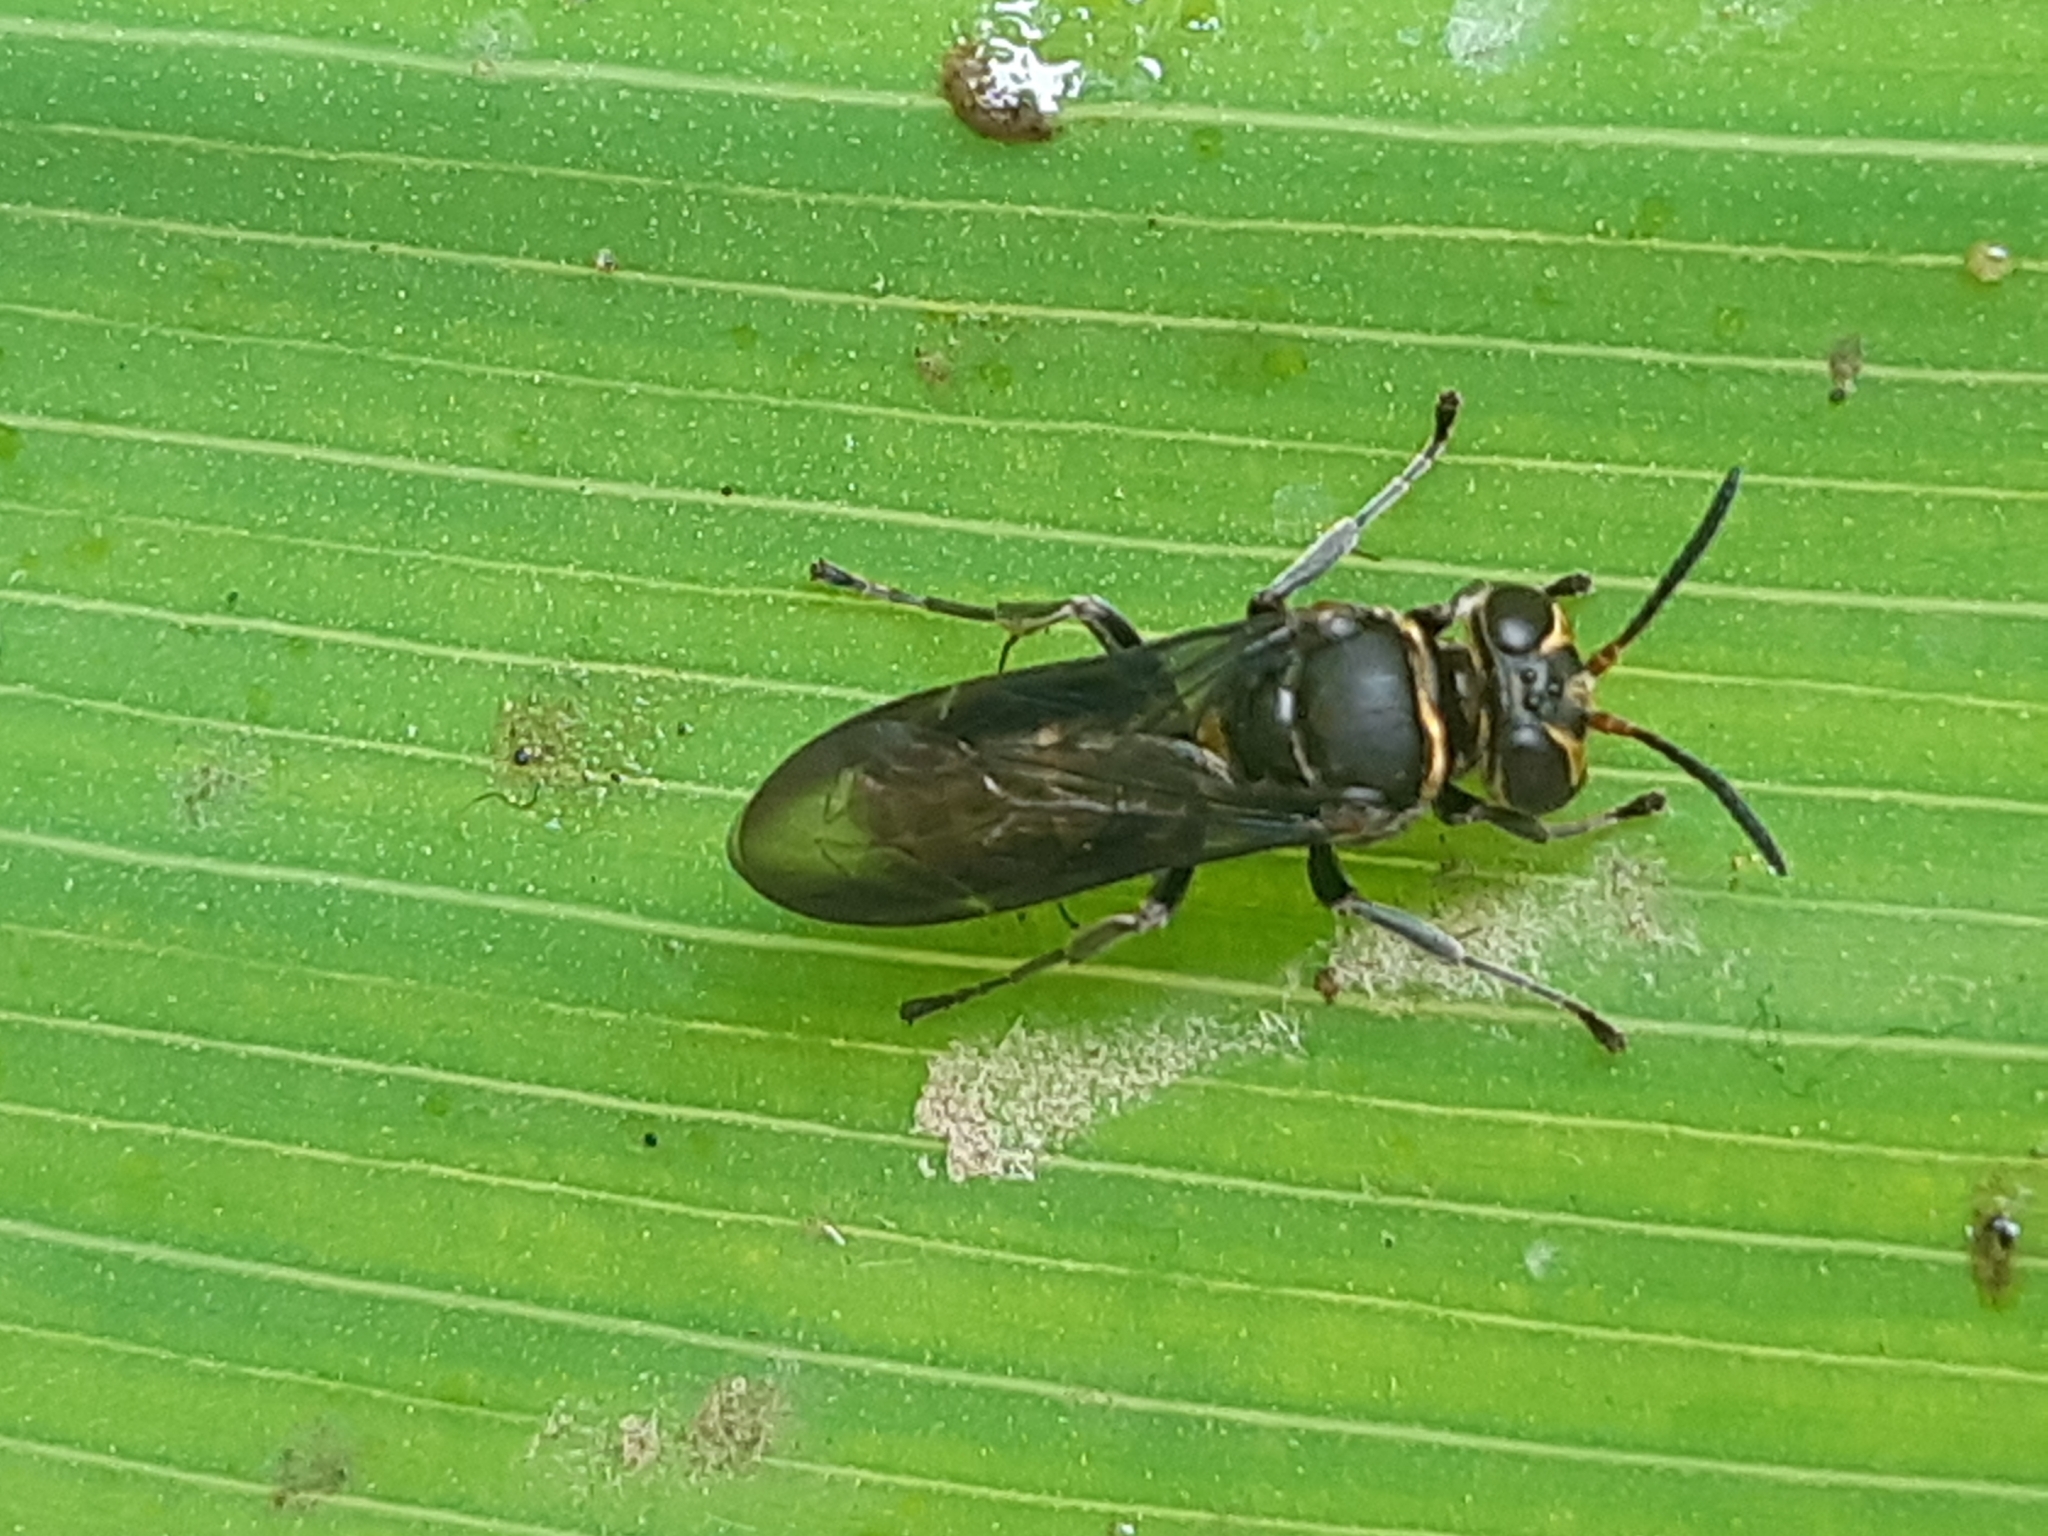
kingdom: Animalia
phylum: Arthropoda
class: Insecta
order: Hymenoptera
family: Crabronidae
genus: Pison
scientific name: Pison
